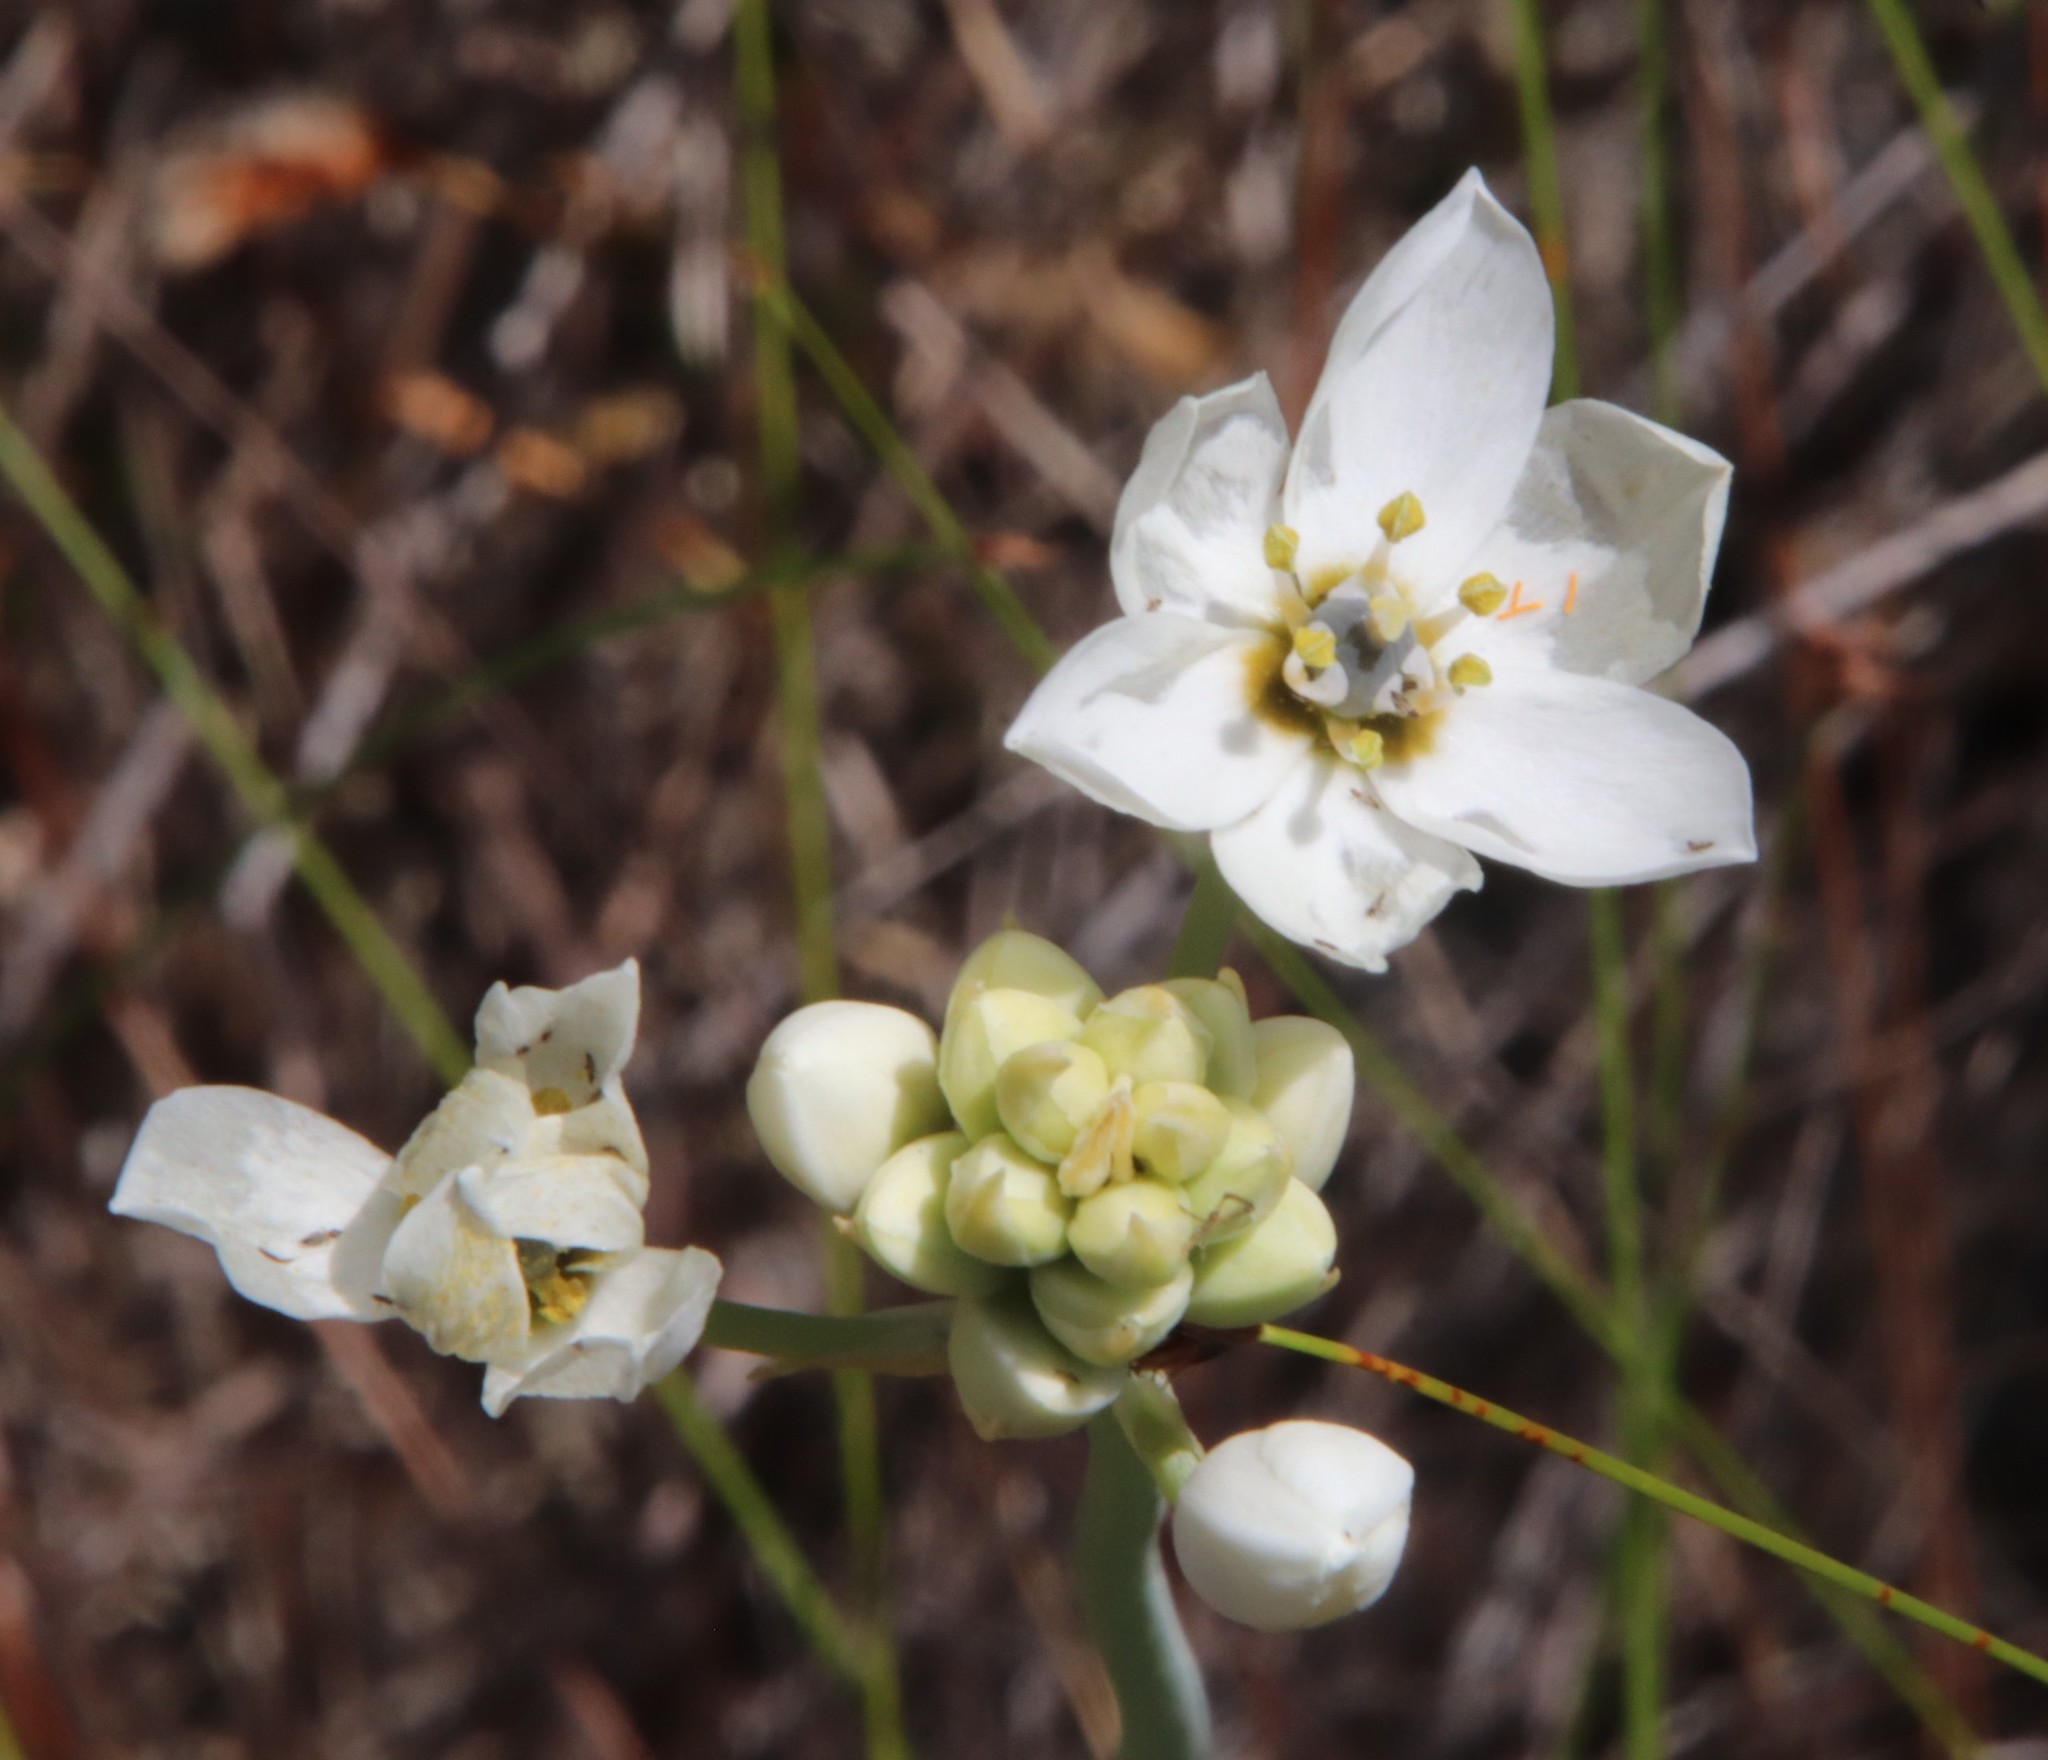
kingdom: Plantae
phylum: Tracheophyta
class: Liliopsida
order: Asparagales
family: Asparagaceae
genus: Ornithogalum
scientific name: Ornithogalum thyrsoides
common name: Chincherinchee
